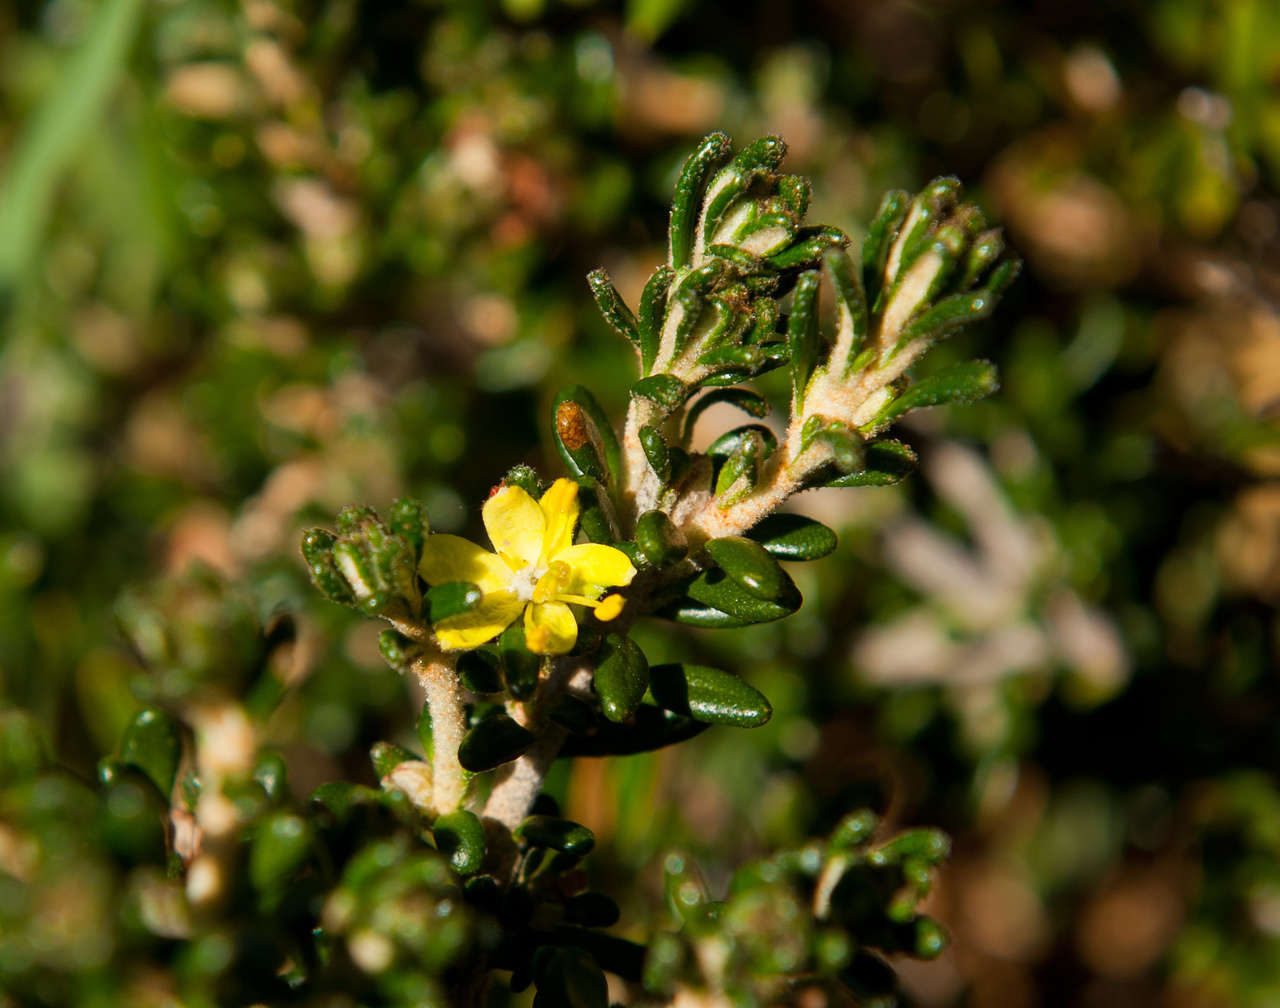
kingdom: Plantae
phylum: Tracheophyta
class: Magnoliopsida
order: Sapindales
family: Rutaceae
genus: Asterolasia
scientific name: Asterolasia trymalioides
